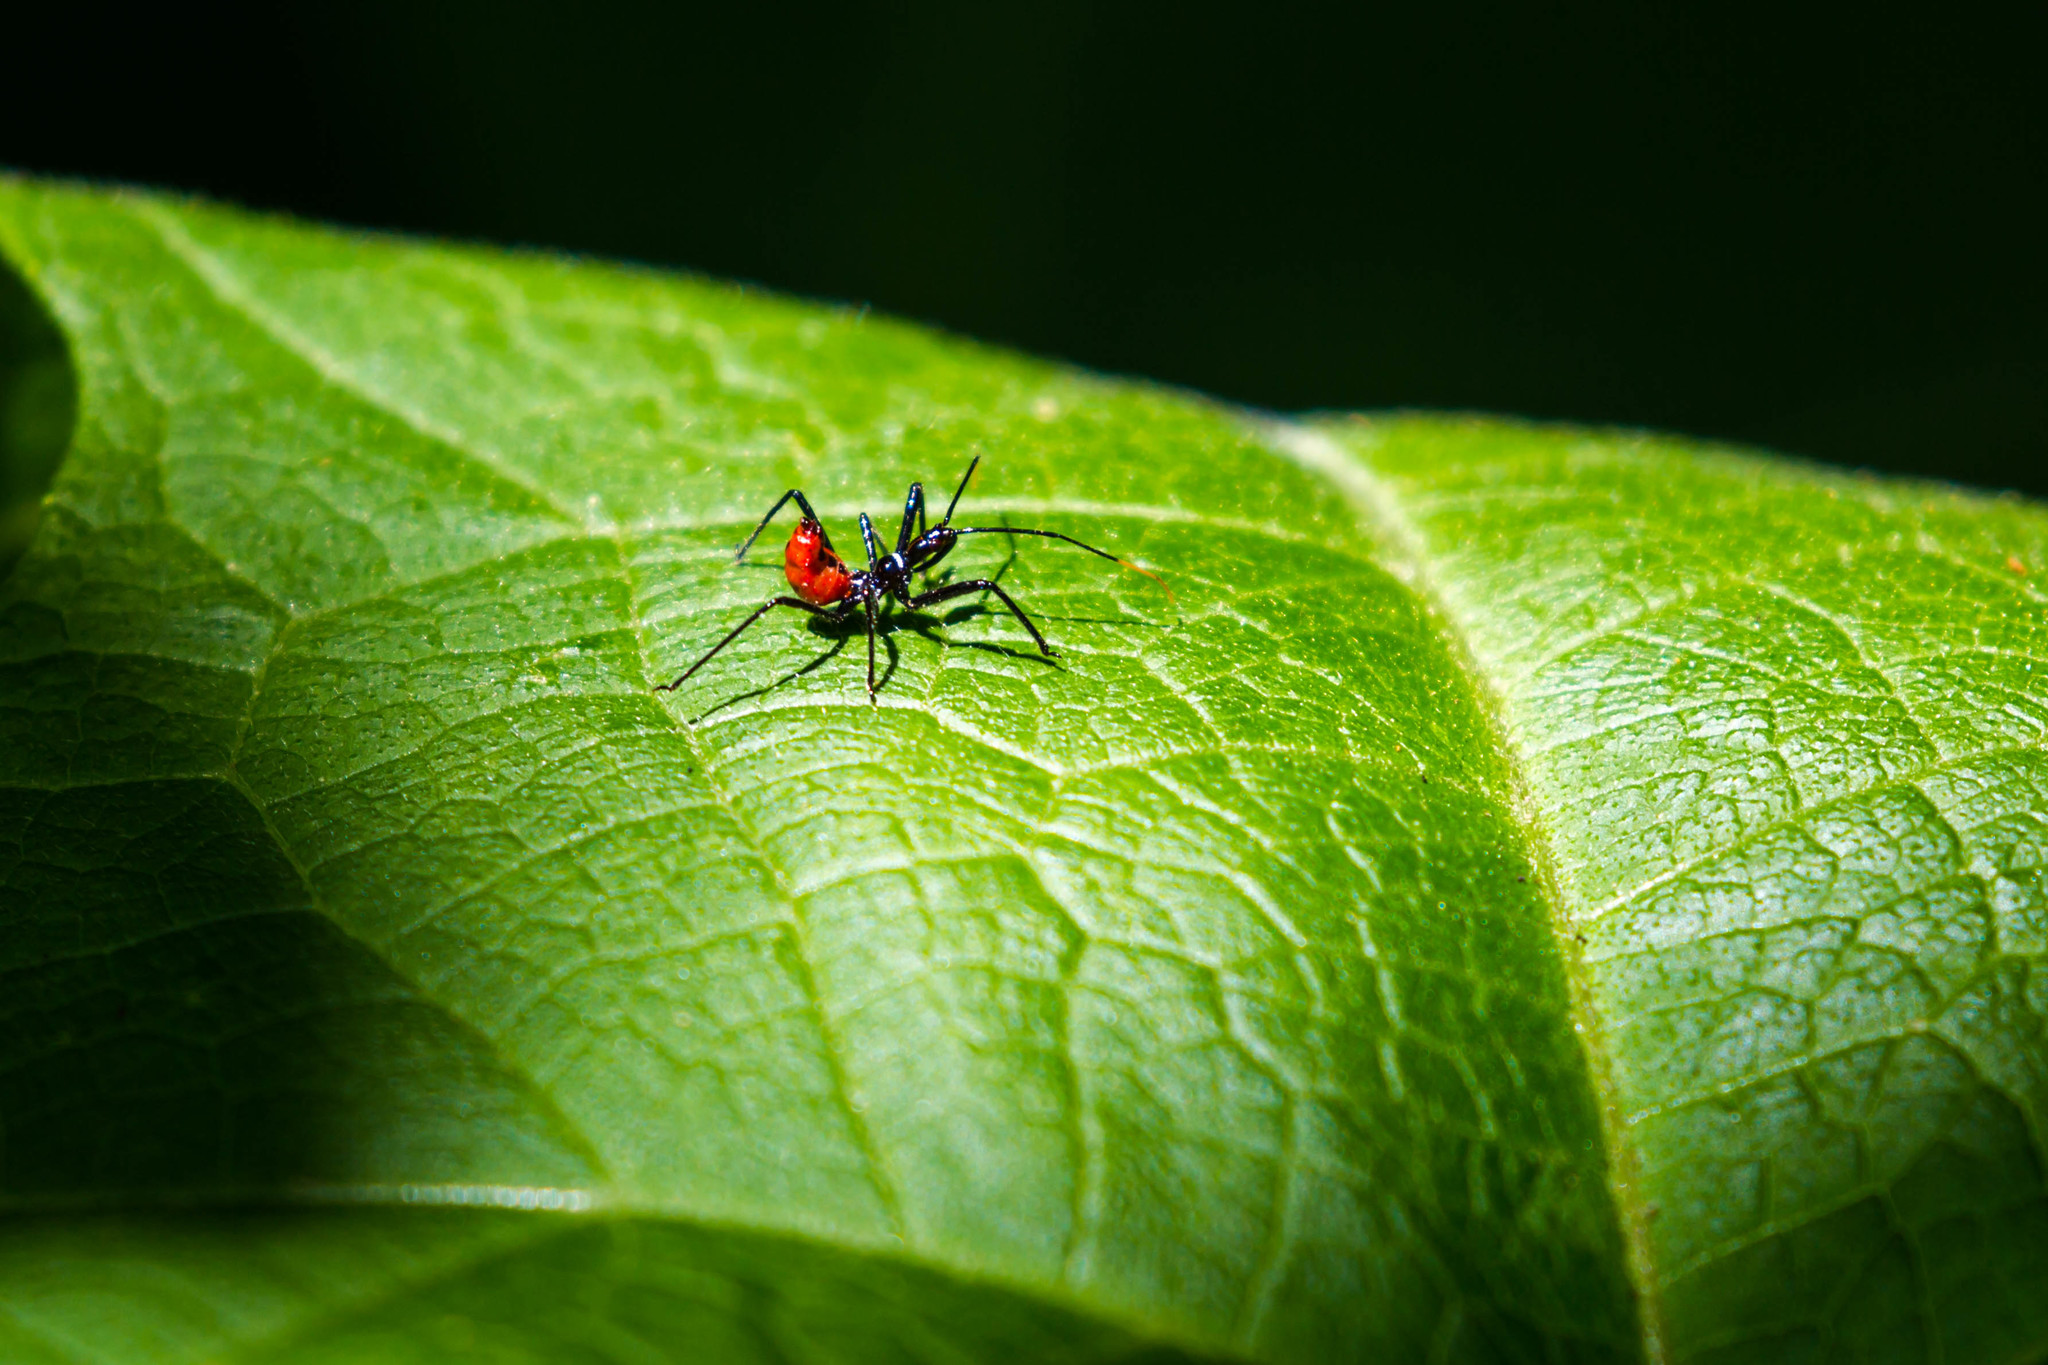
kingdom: Animalia
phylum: Arthropoda
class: Insecta
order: Hemiptera
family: Reduviidae
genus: Arilus
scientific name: Arilus cristatus
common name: North american wheel bug
